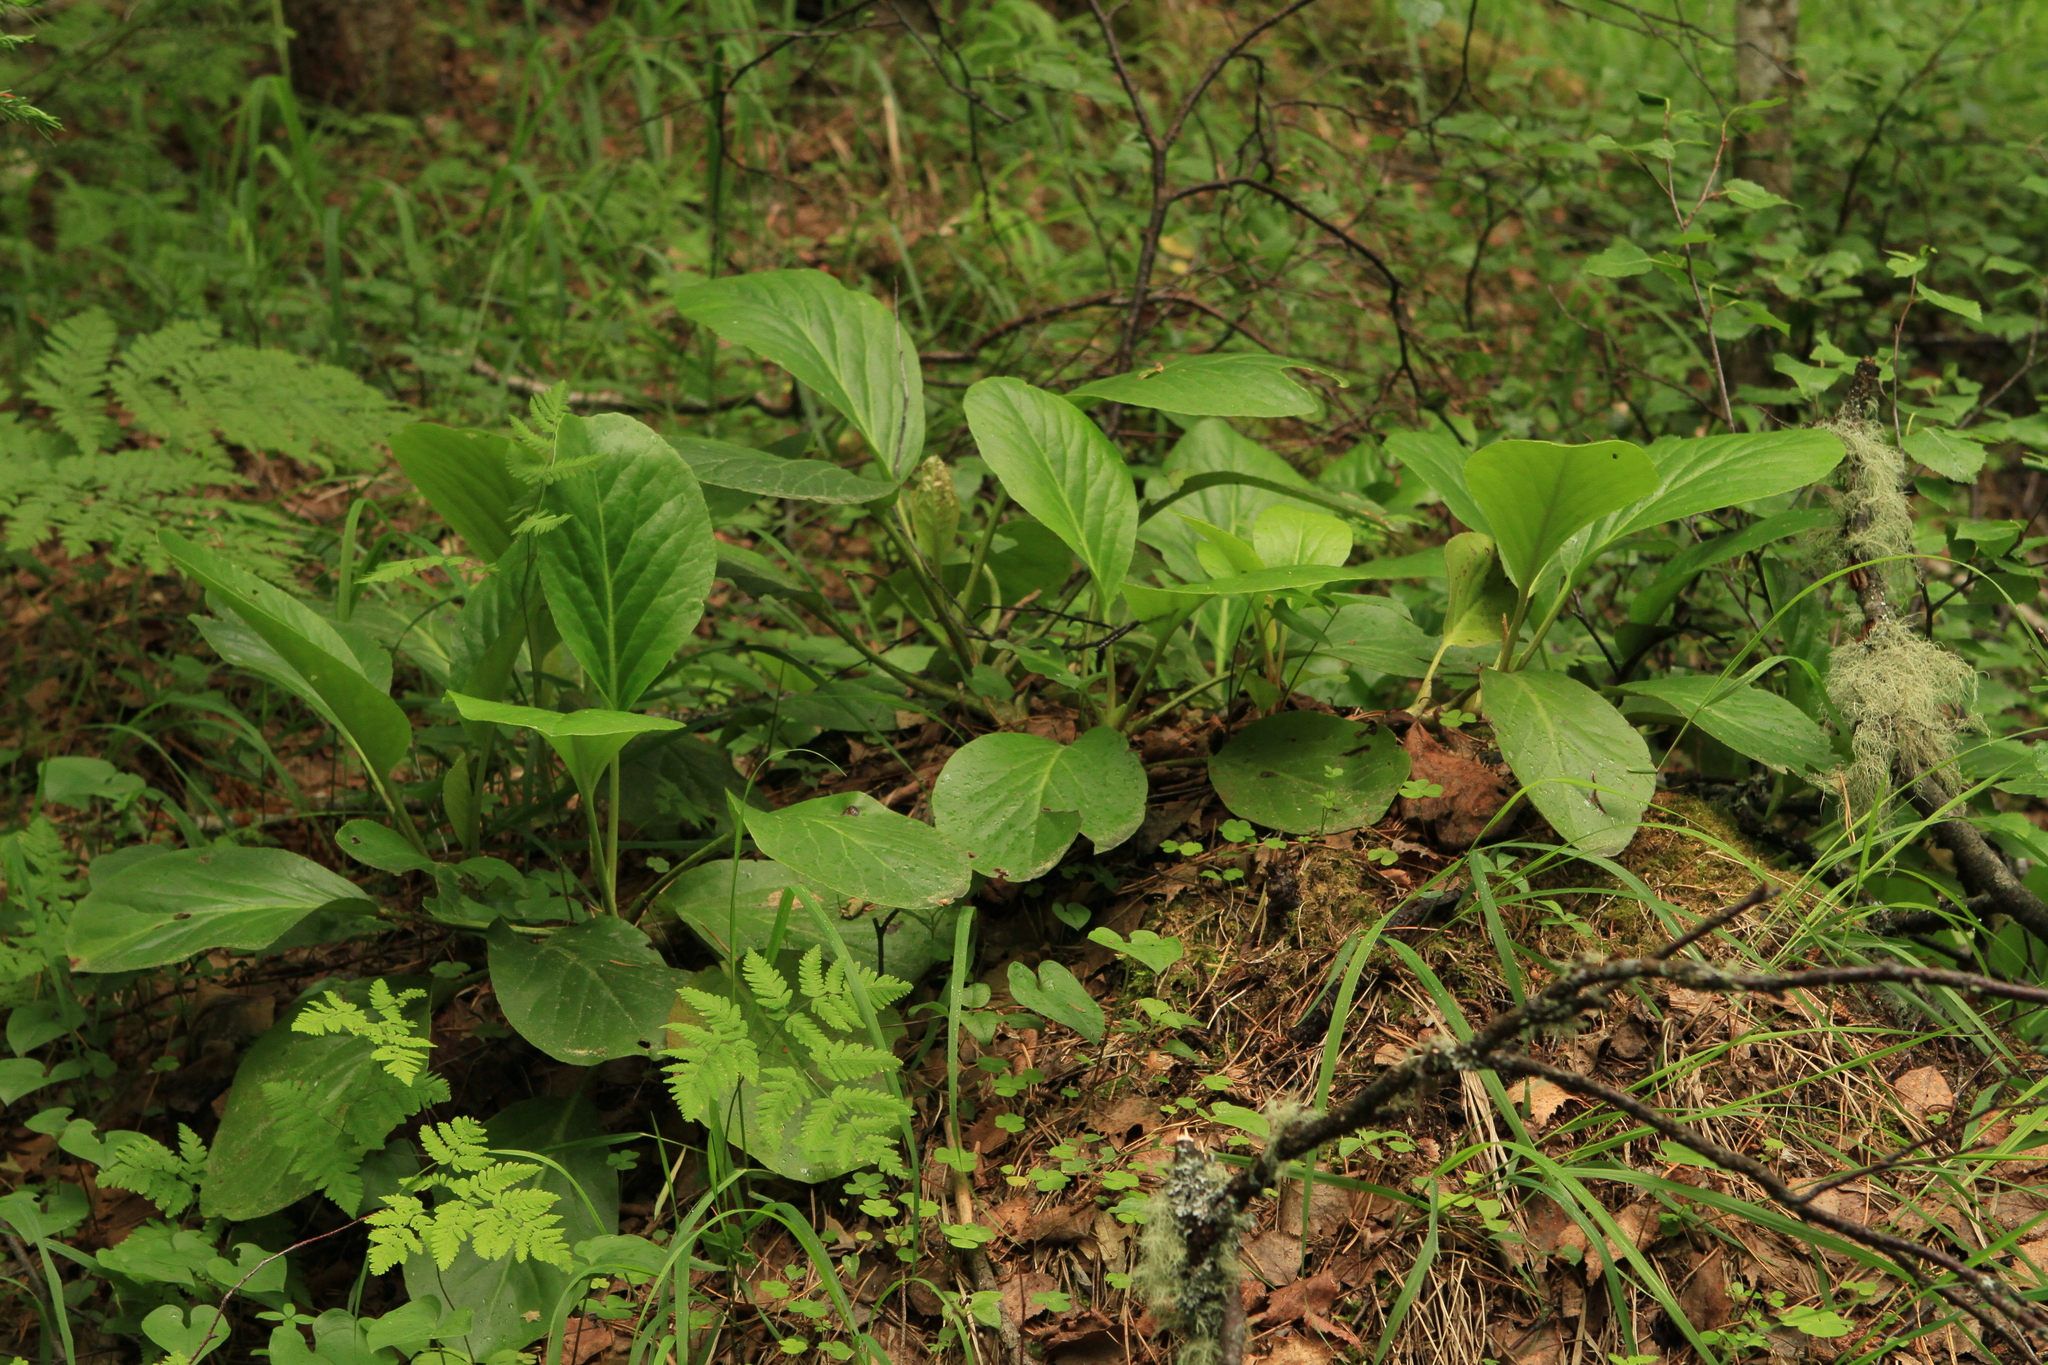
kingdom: Plantae
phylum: Tracheophyta
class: Magnoliopsida
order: Saxifragales
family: Saxifragaceae
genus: Bergenia
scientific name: Bergenia crassifolia
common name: Elephant-ears
